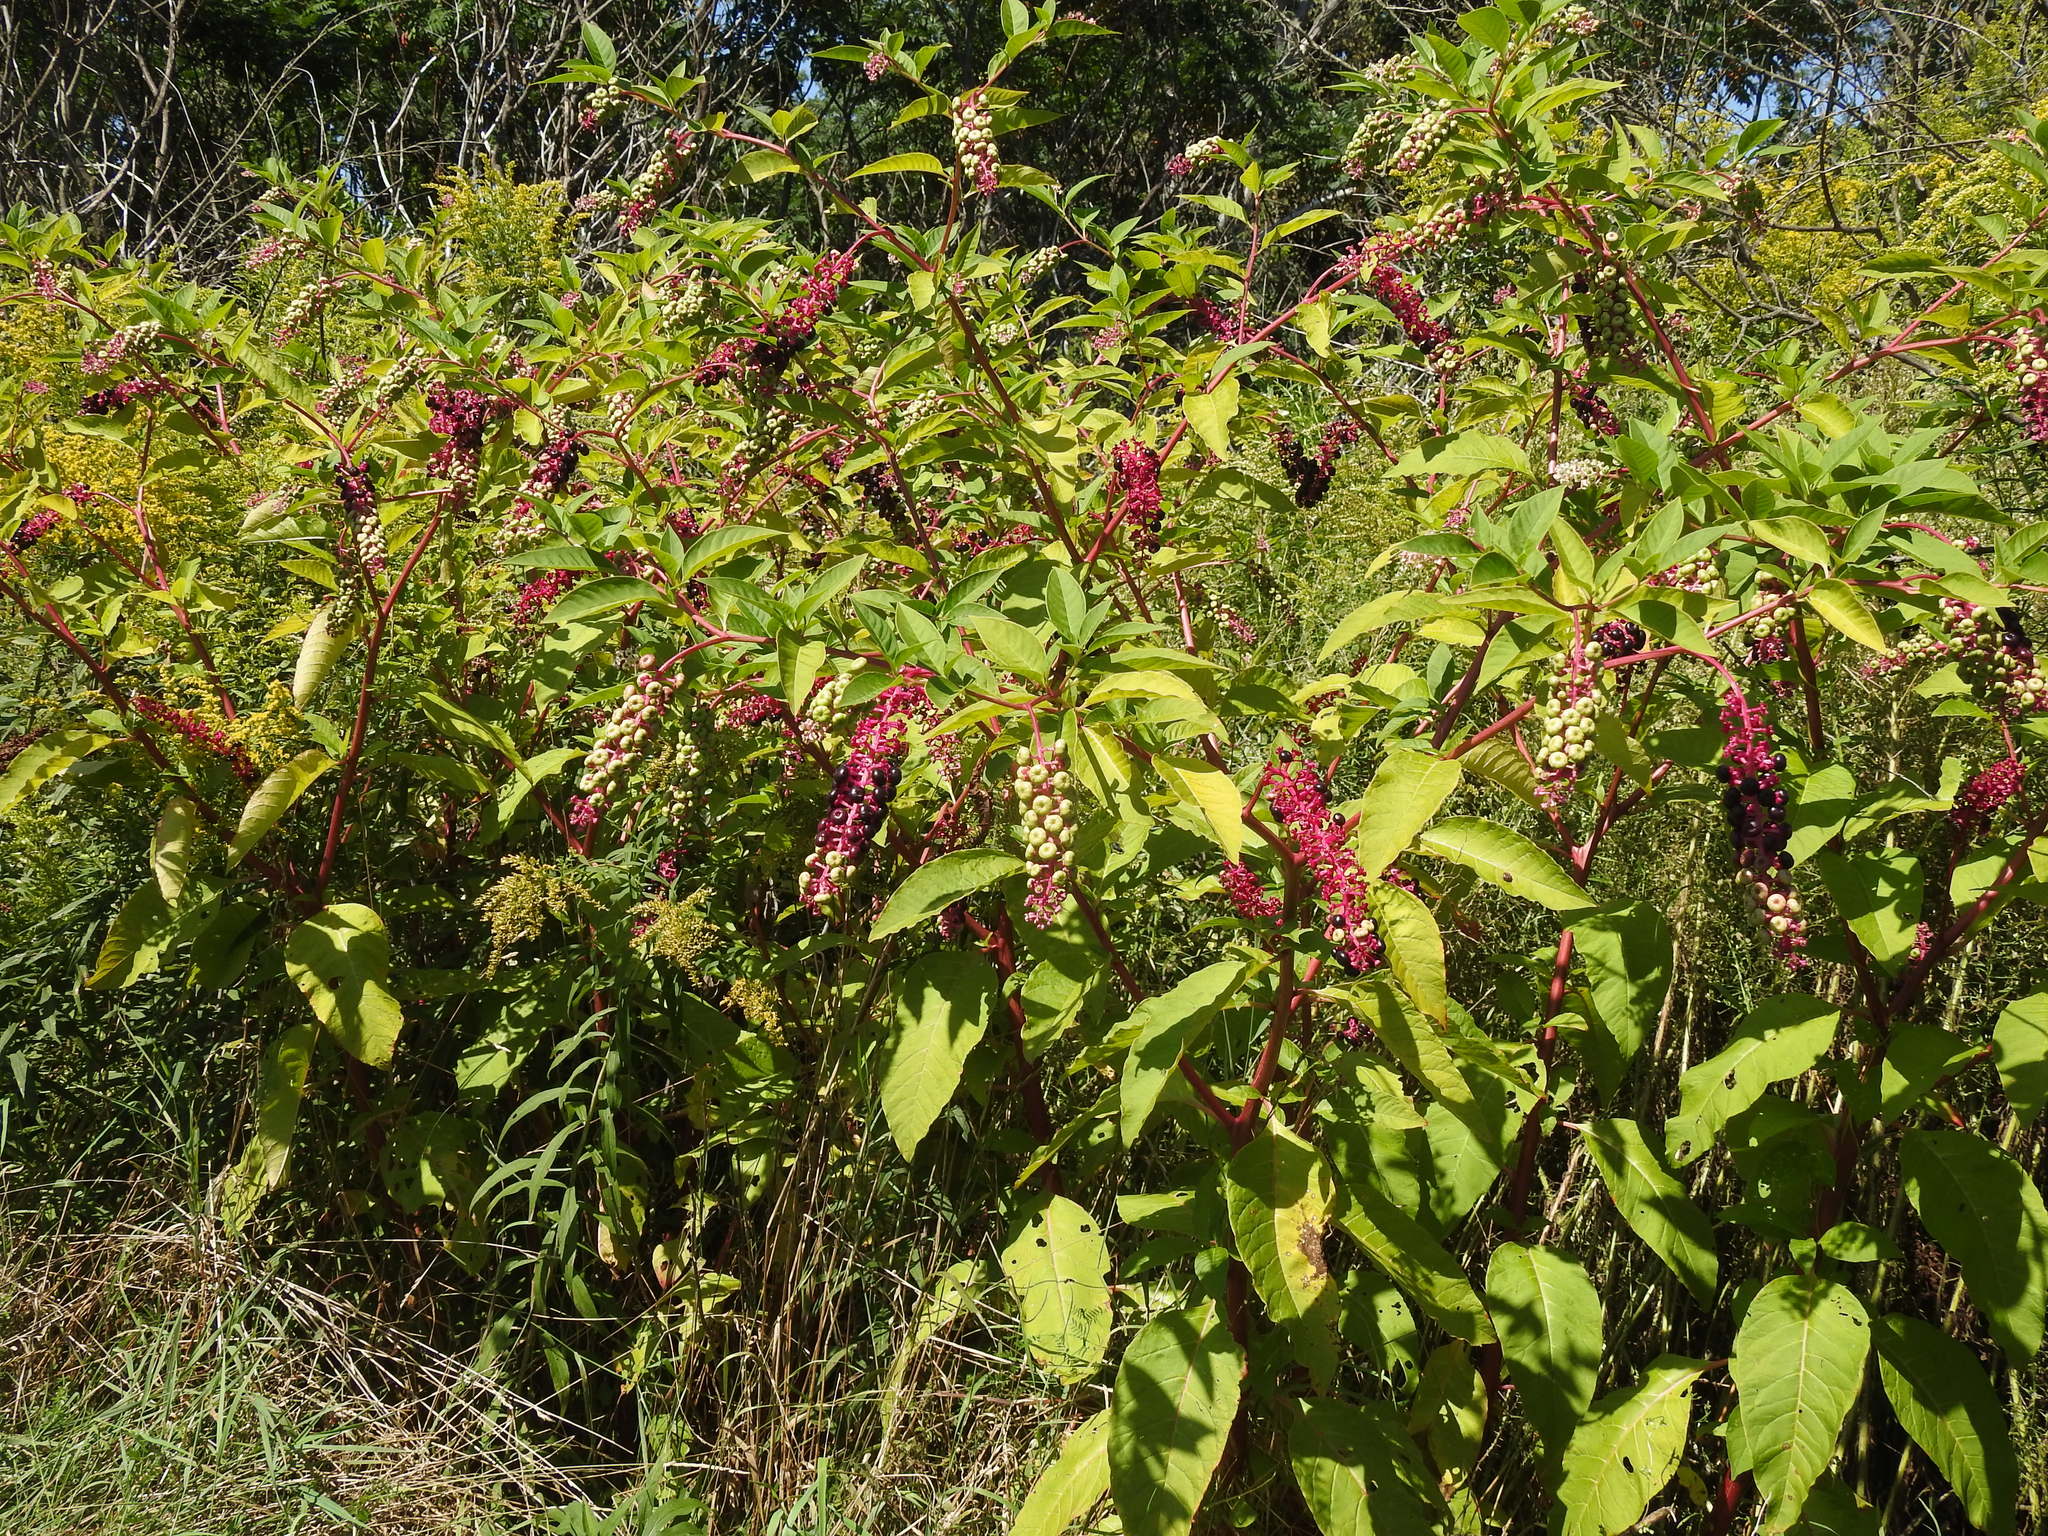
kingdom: Plantae
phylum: Tracheophyta
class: Magnoliopsida
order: Caryophyllales
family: Phytolaccaceae
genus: Phytolacca
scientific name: Phytolacca americana
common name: American pokeweed
